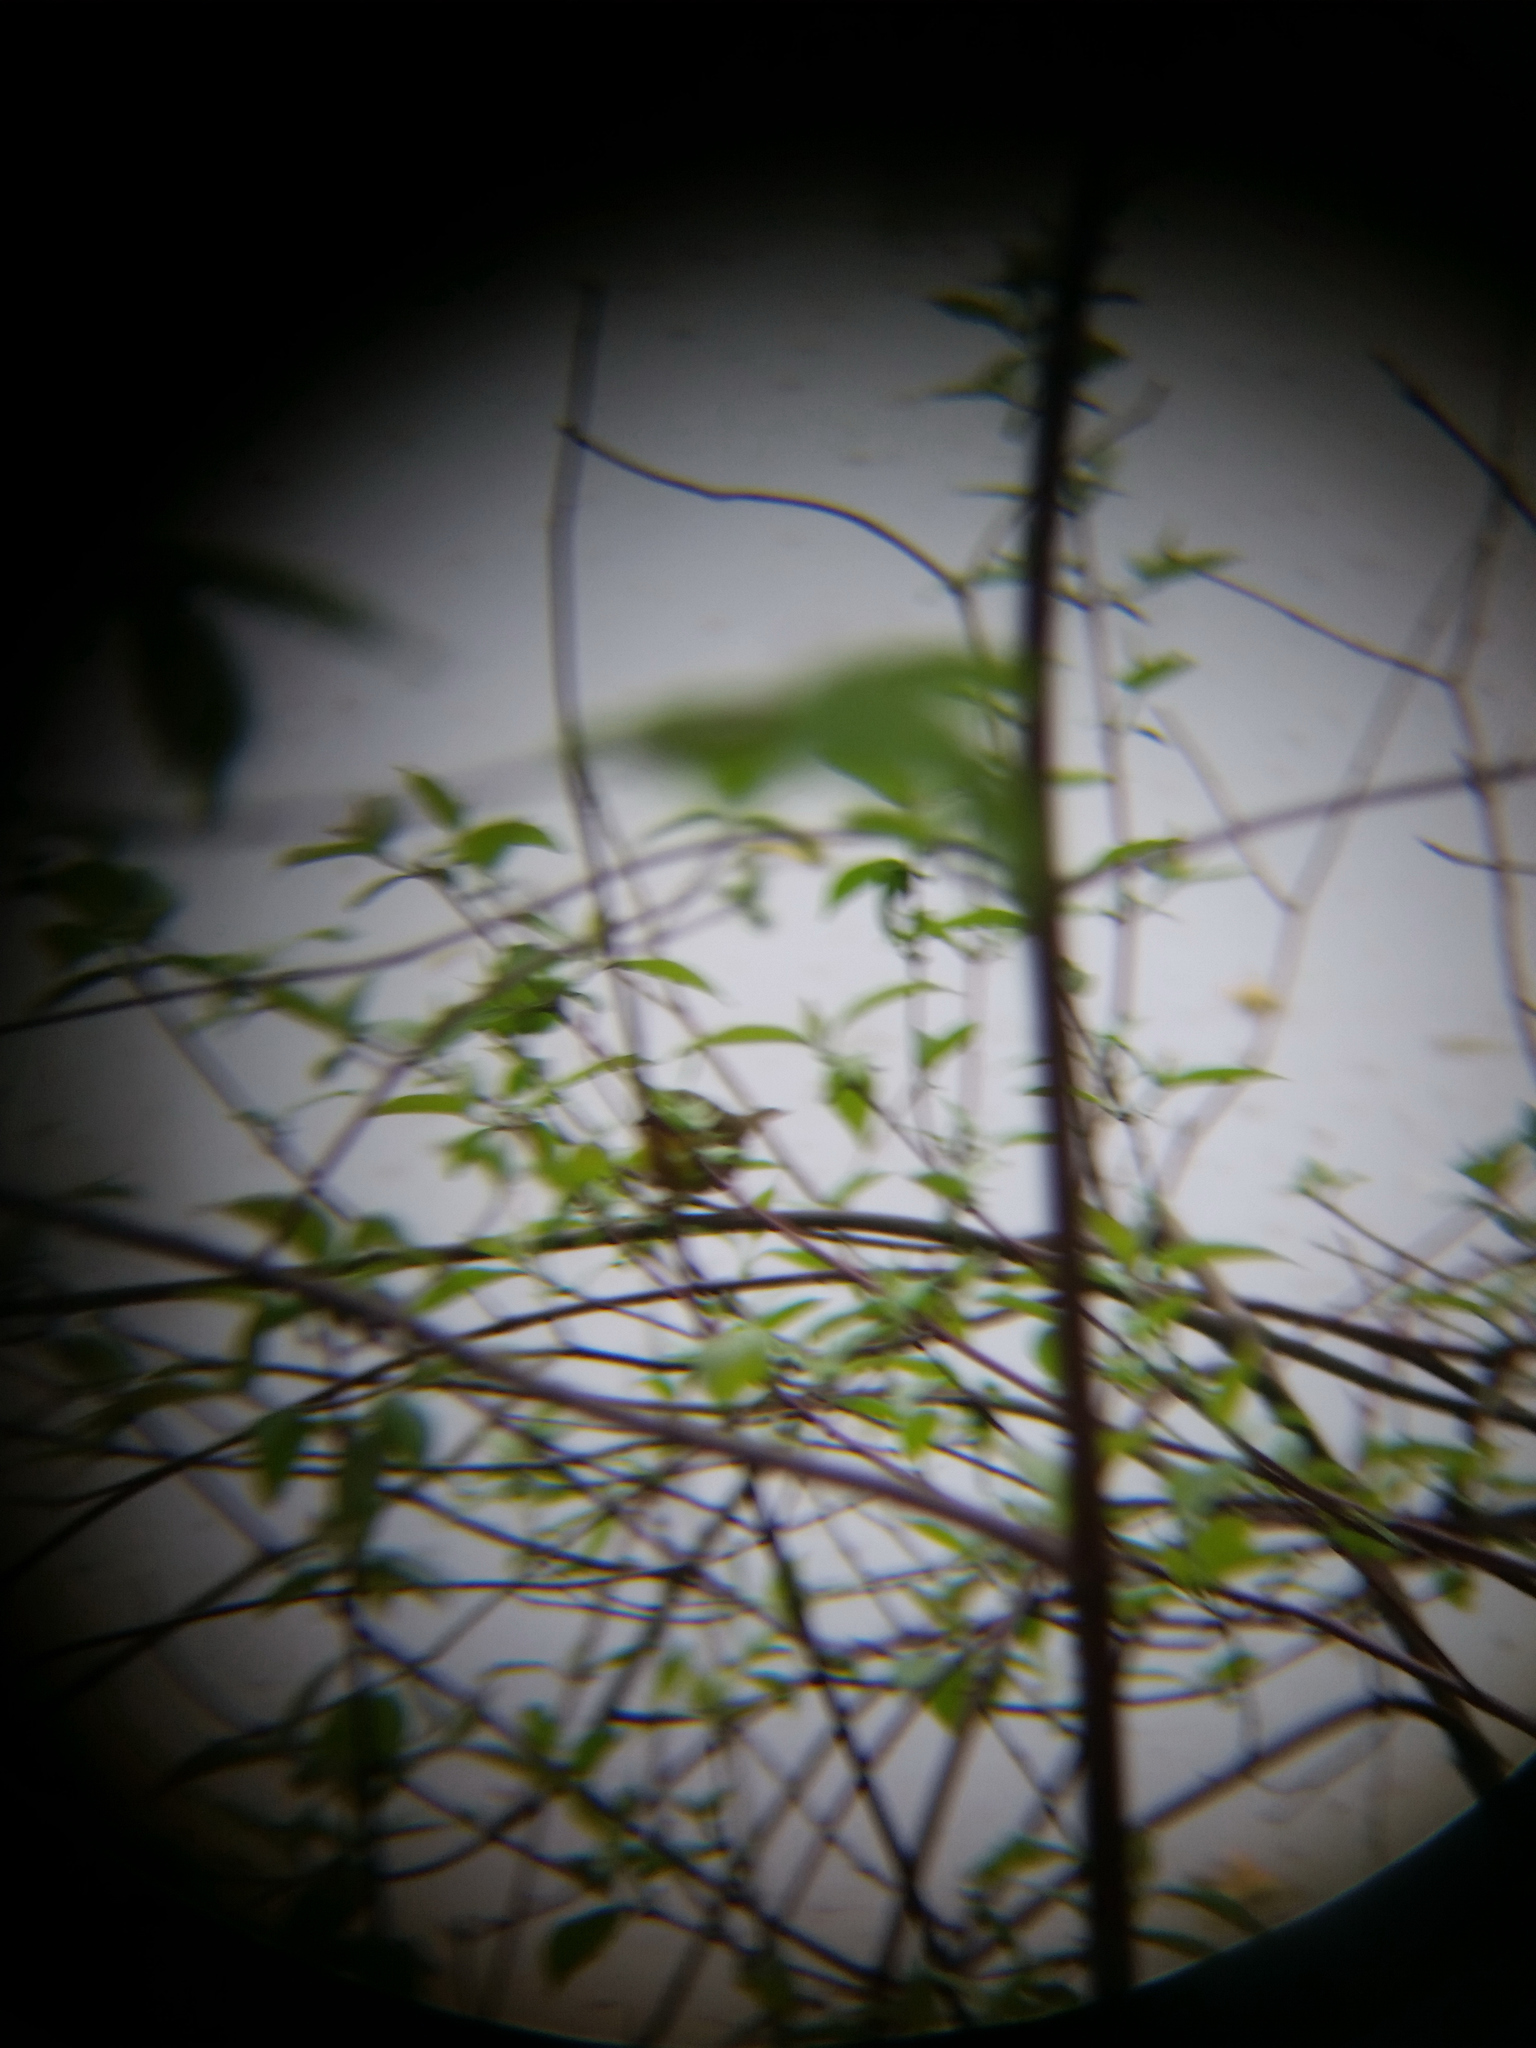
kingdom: Animalia
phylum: Chordata
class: Aves
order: Passeriformes
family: Parulidae
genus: Geothlypis
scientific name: Geothlypis trichas
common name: Common yellowthroat
